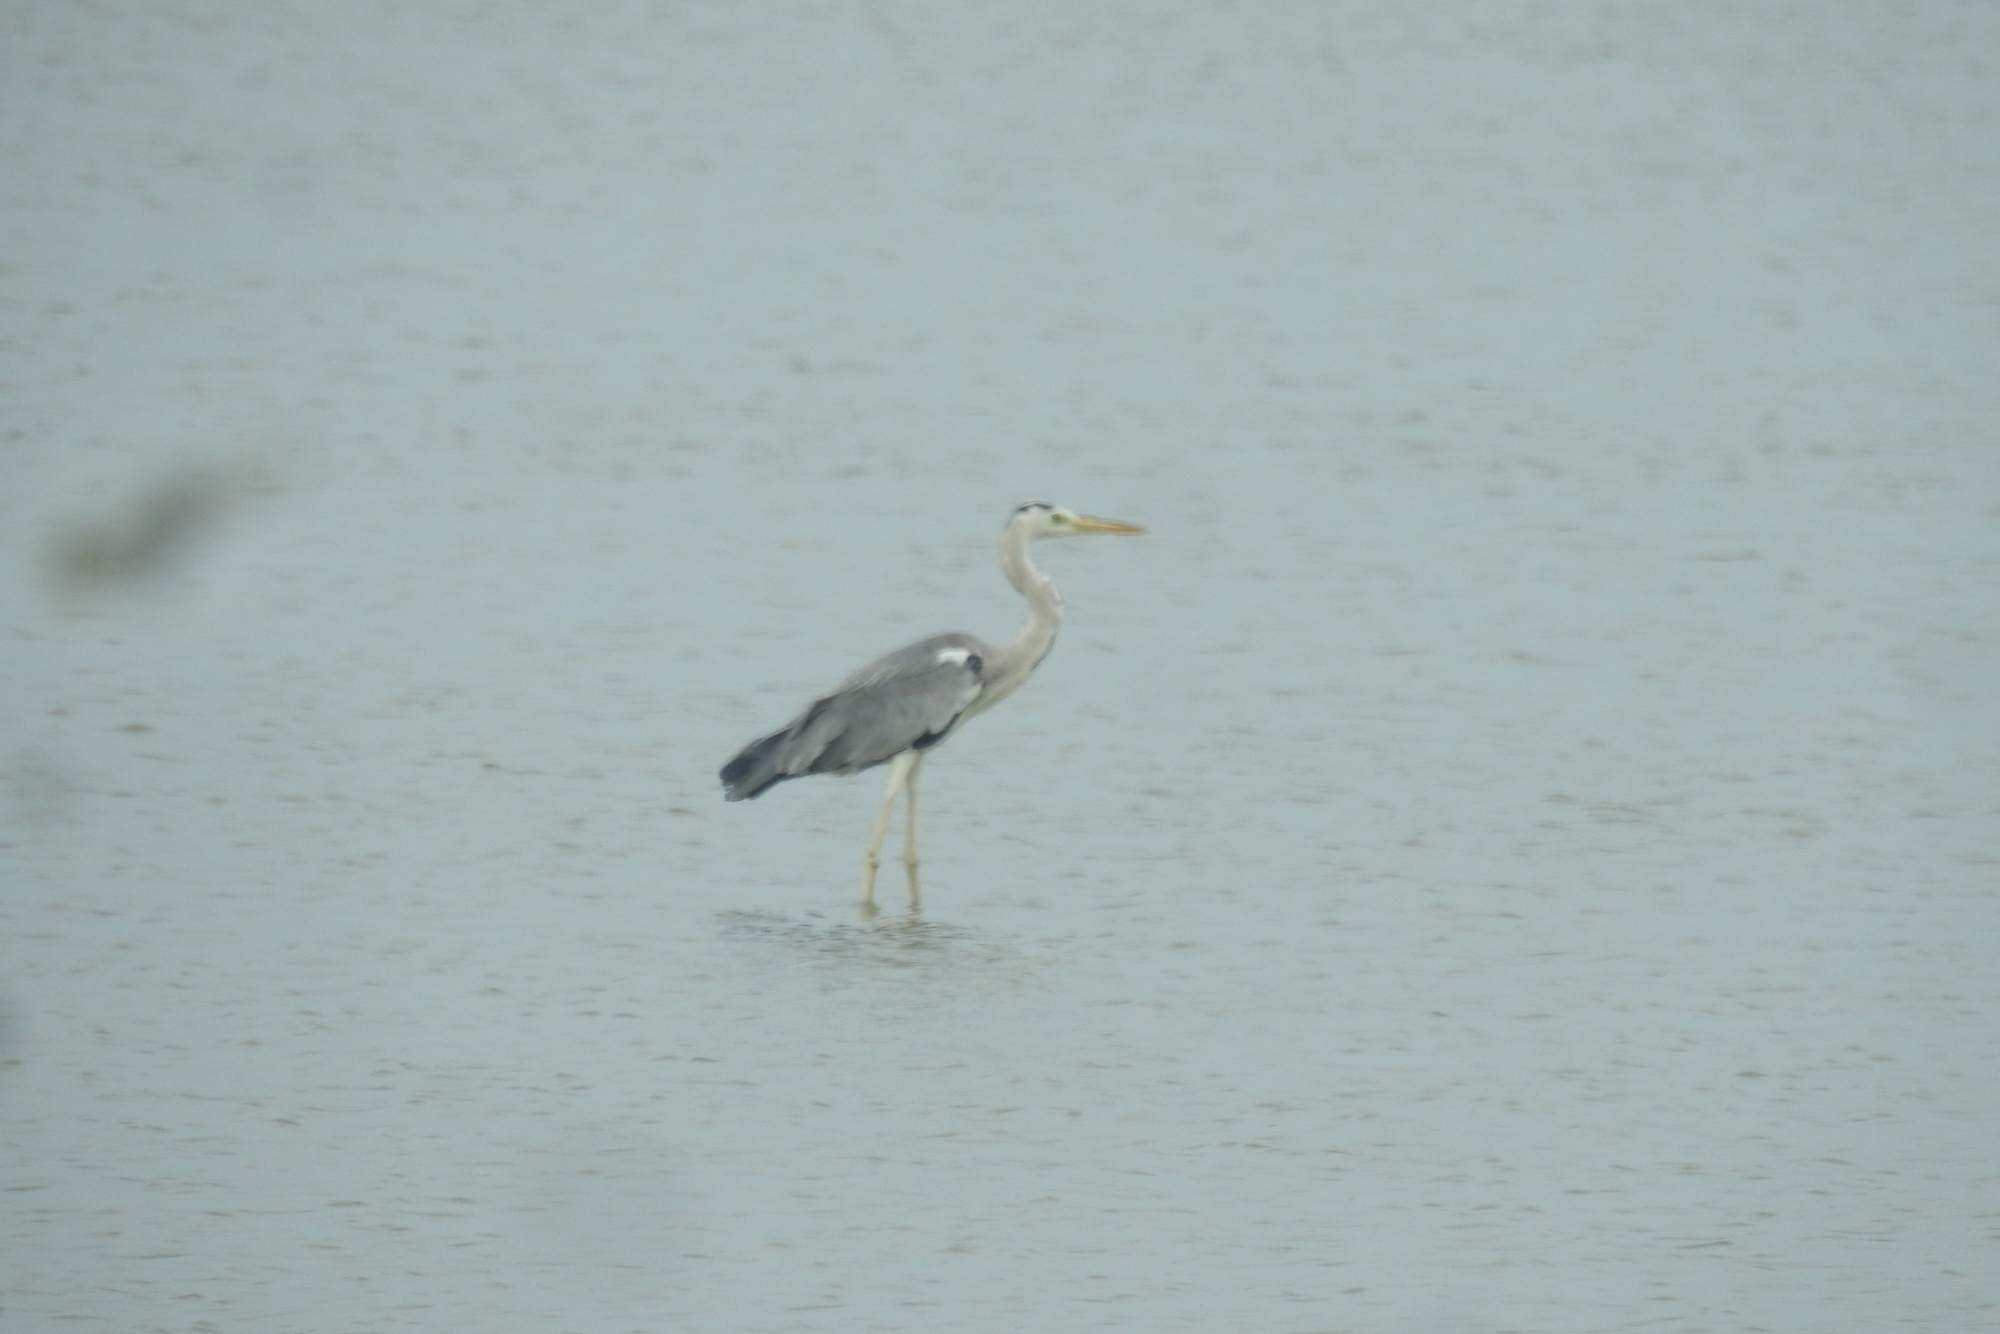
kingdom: Animalia
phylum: Chordata
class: Aves
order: Pelecaniformes
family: Ardeidae
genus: Ardea
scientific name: Ardea cinerea
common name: Grey heron
